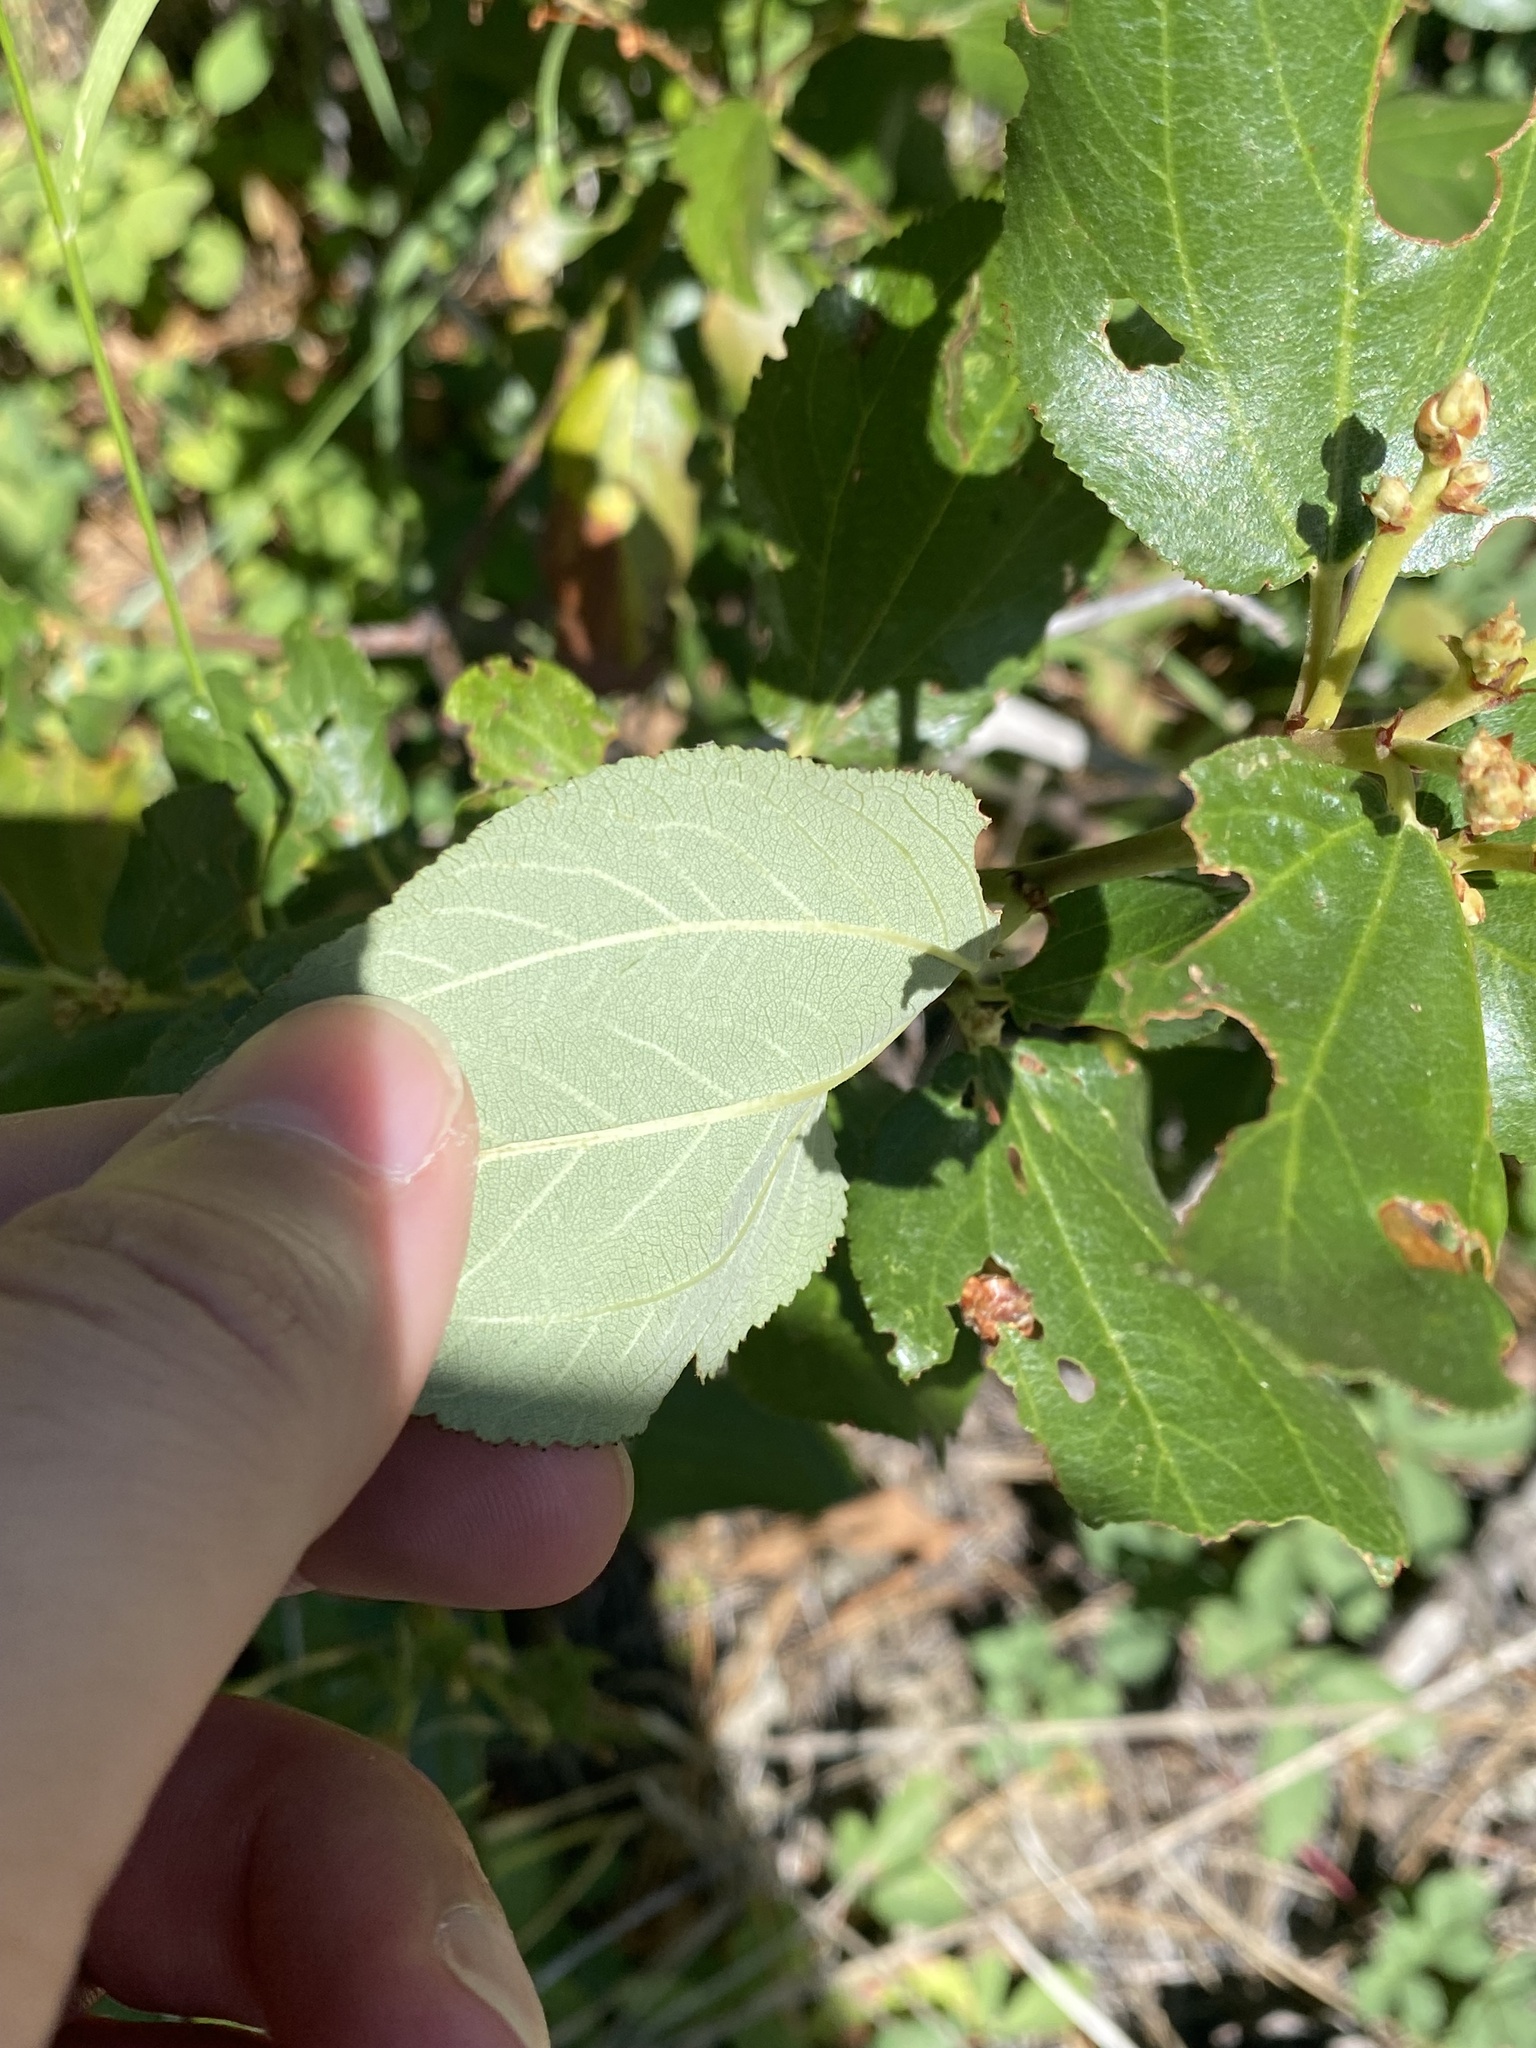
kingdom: Plantae
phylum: Tracheophyta
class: Magnoliopsida
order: Rosales
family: Rhamnaceae
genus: Ceanothus
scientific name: Ceanothus velutinus
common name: Snowbrush
